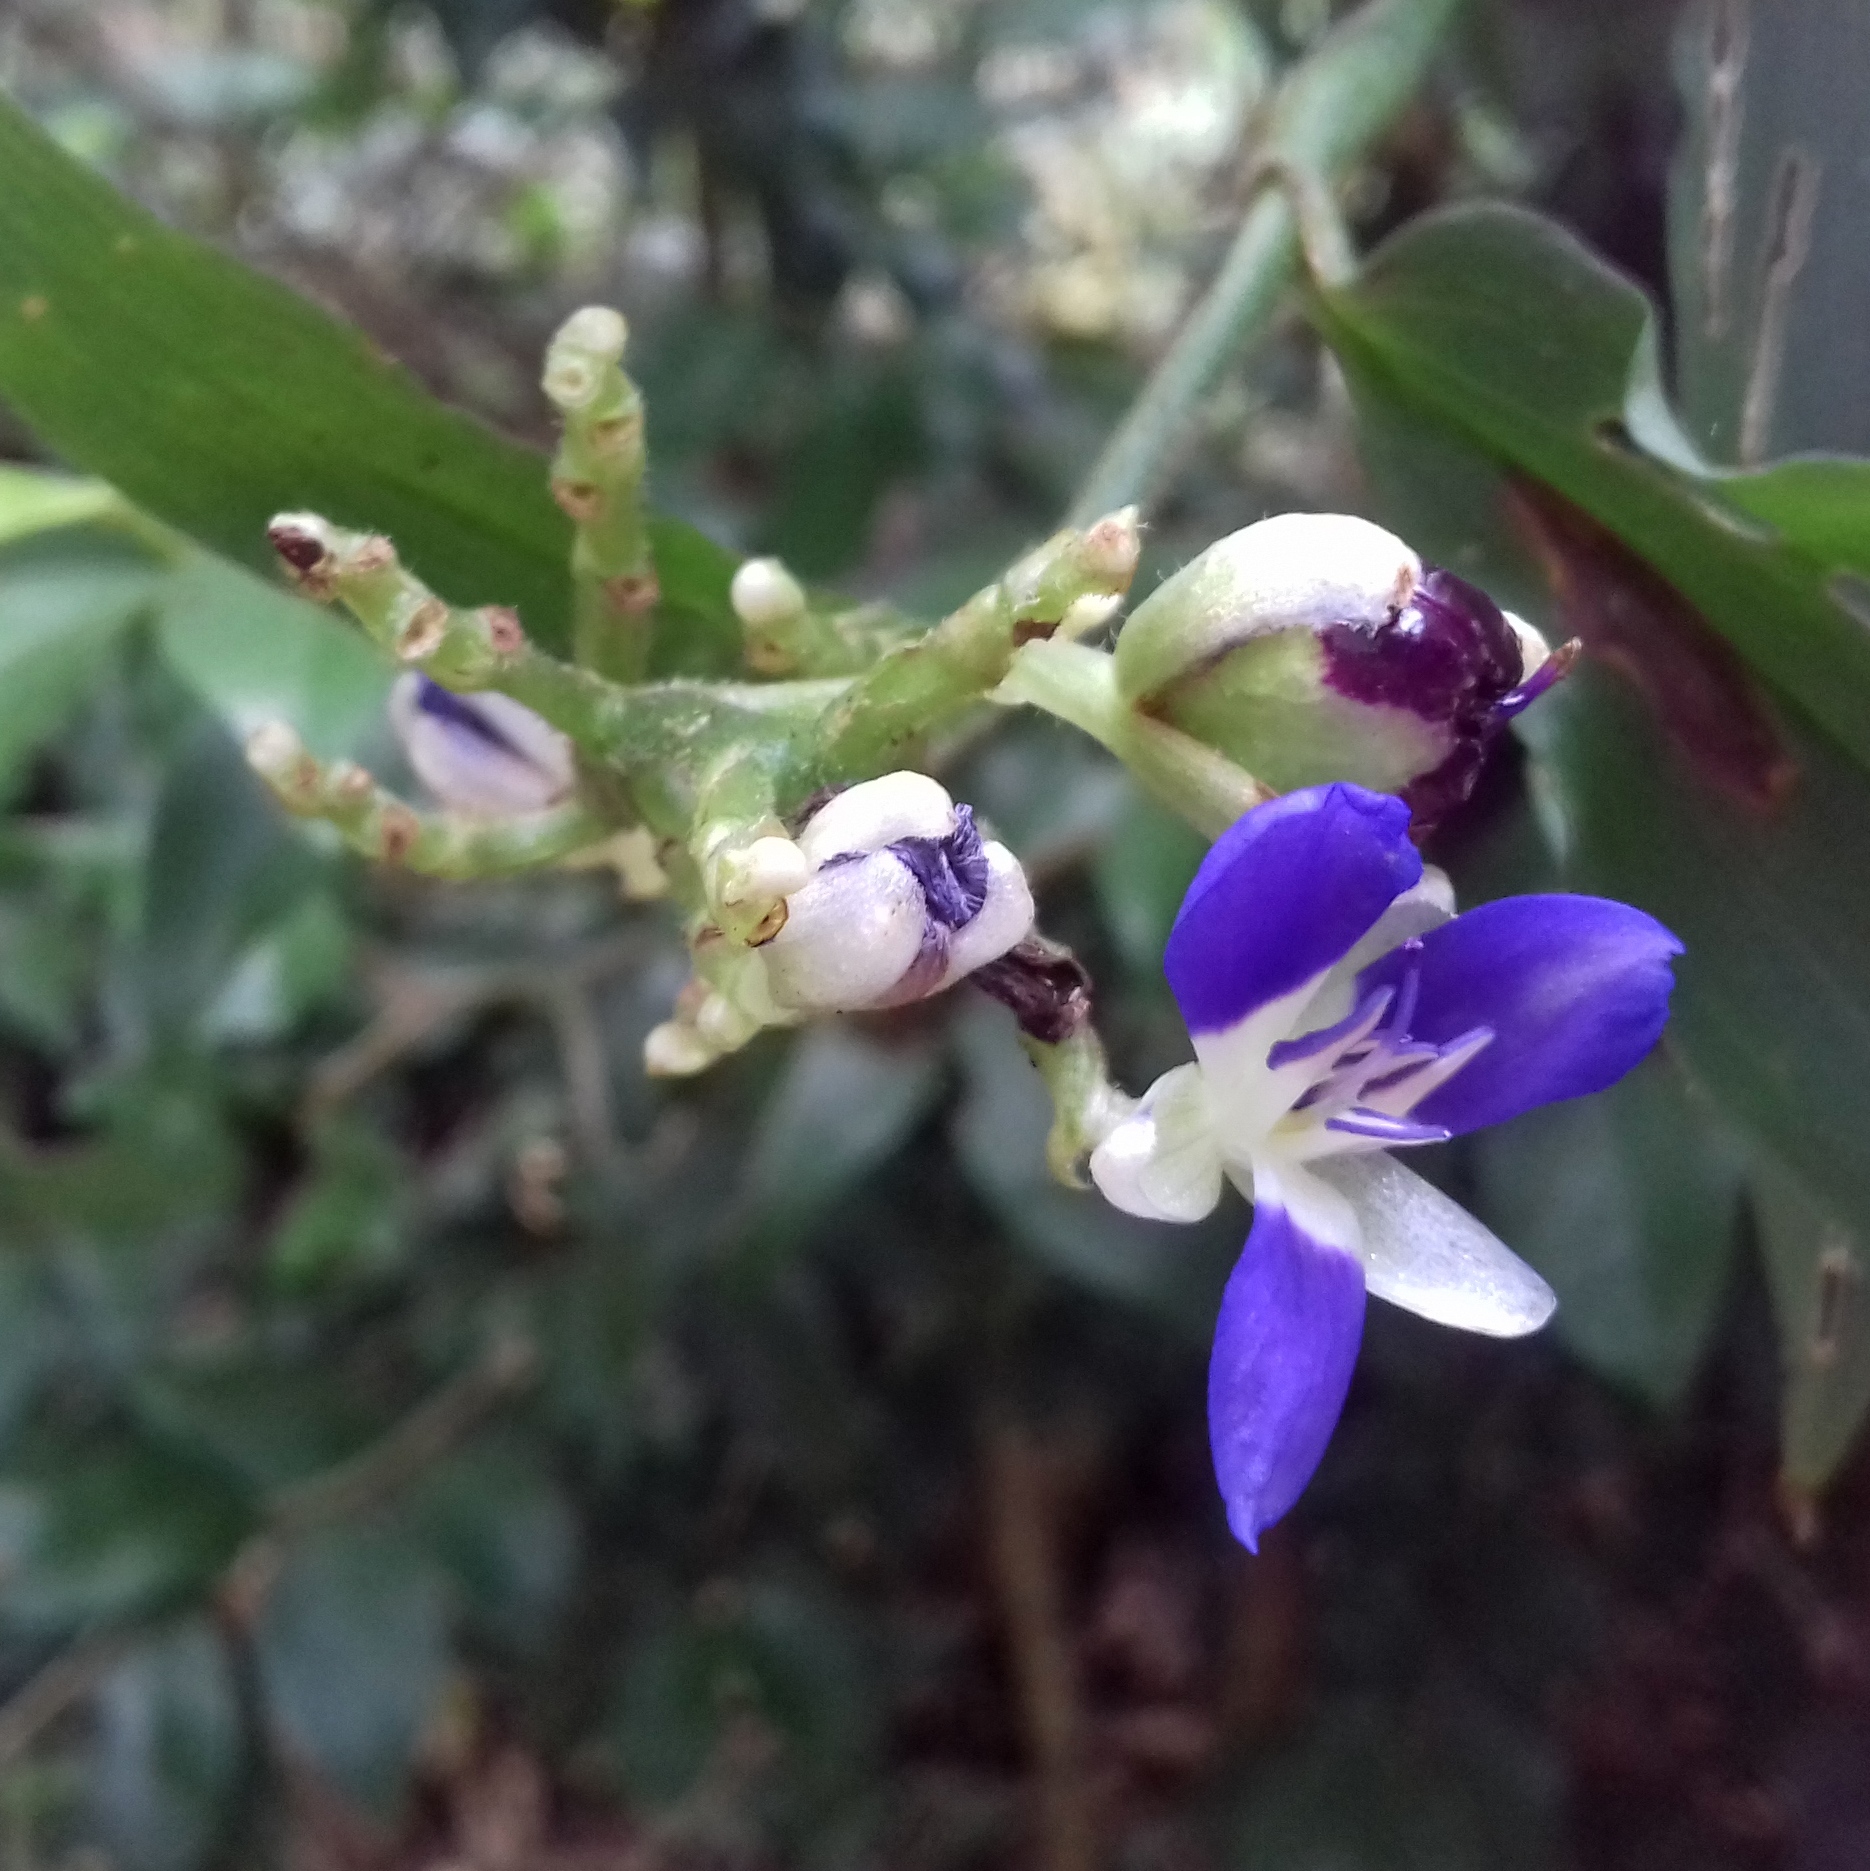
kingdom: Plantae
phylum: Tracheophyta
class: Liliopsida
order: Commelinales
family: Commelinaceae
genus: Dichorisandra
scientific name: Dichorisandra hexandra
